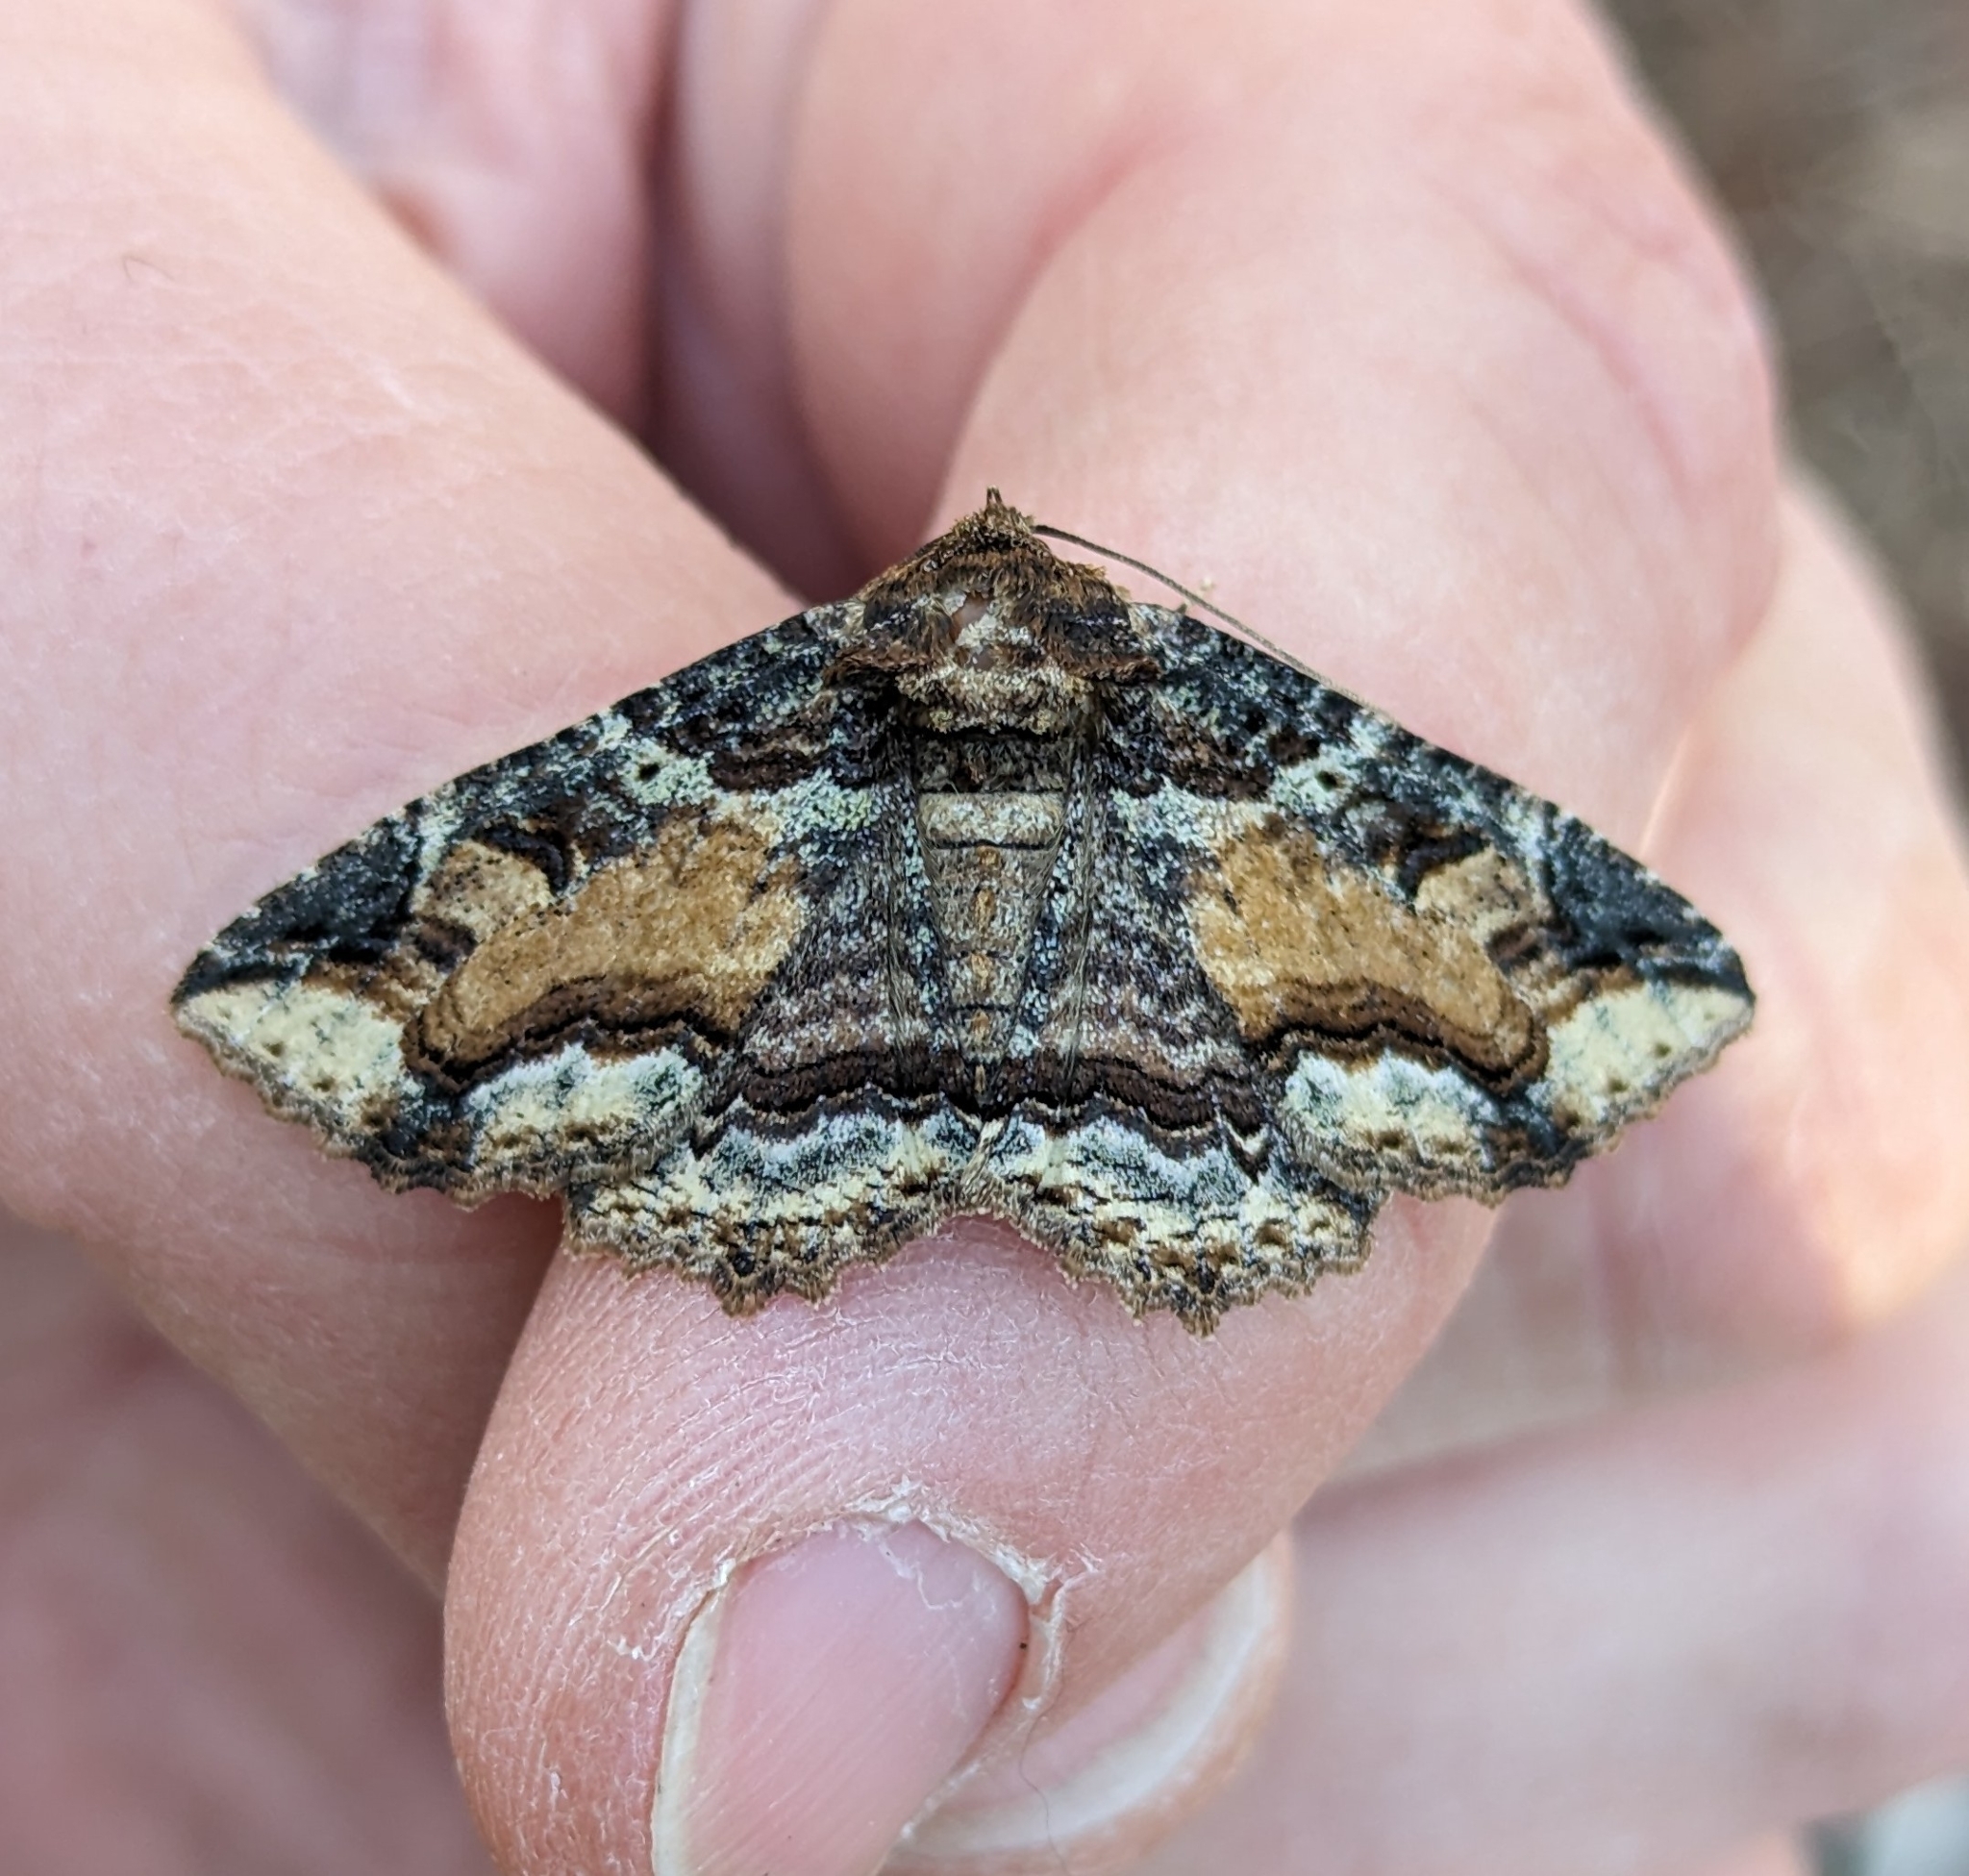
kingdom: Animalia
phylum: Arthropoda
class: Insecta
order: Lepidoptera
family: Erebidae
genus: Zale
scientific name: Zale minerea
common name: Colorful zale moth
